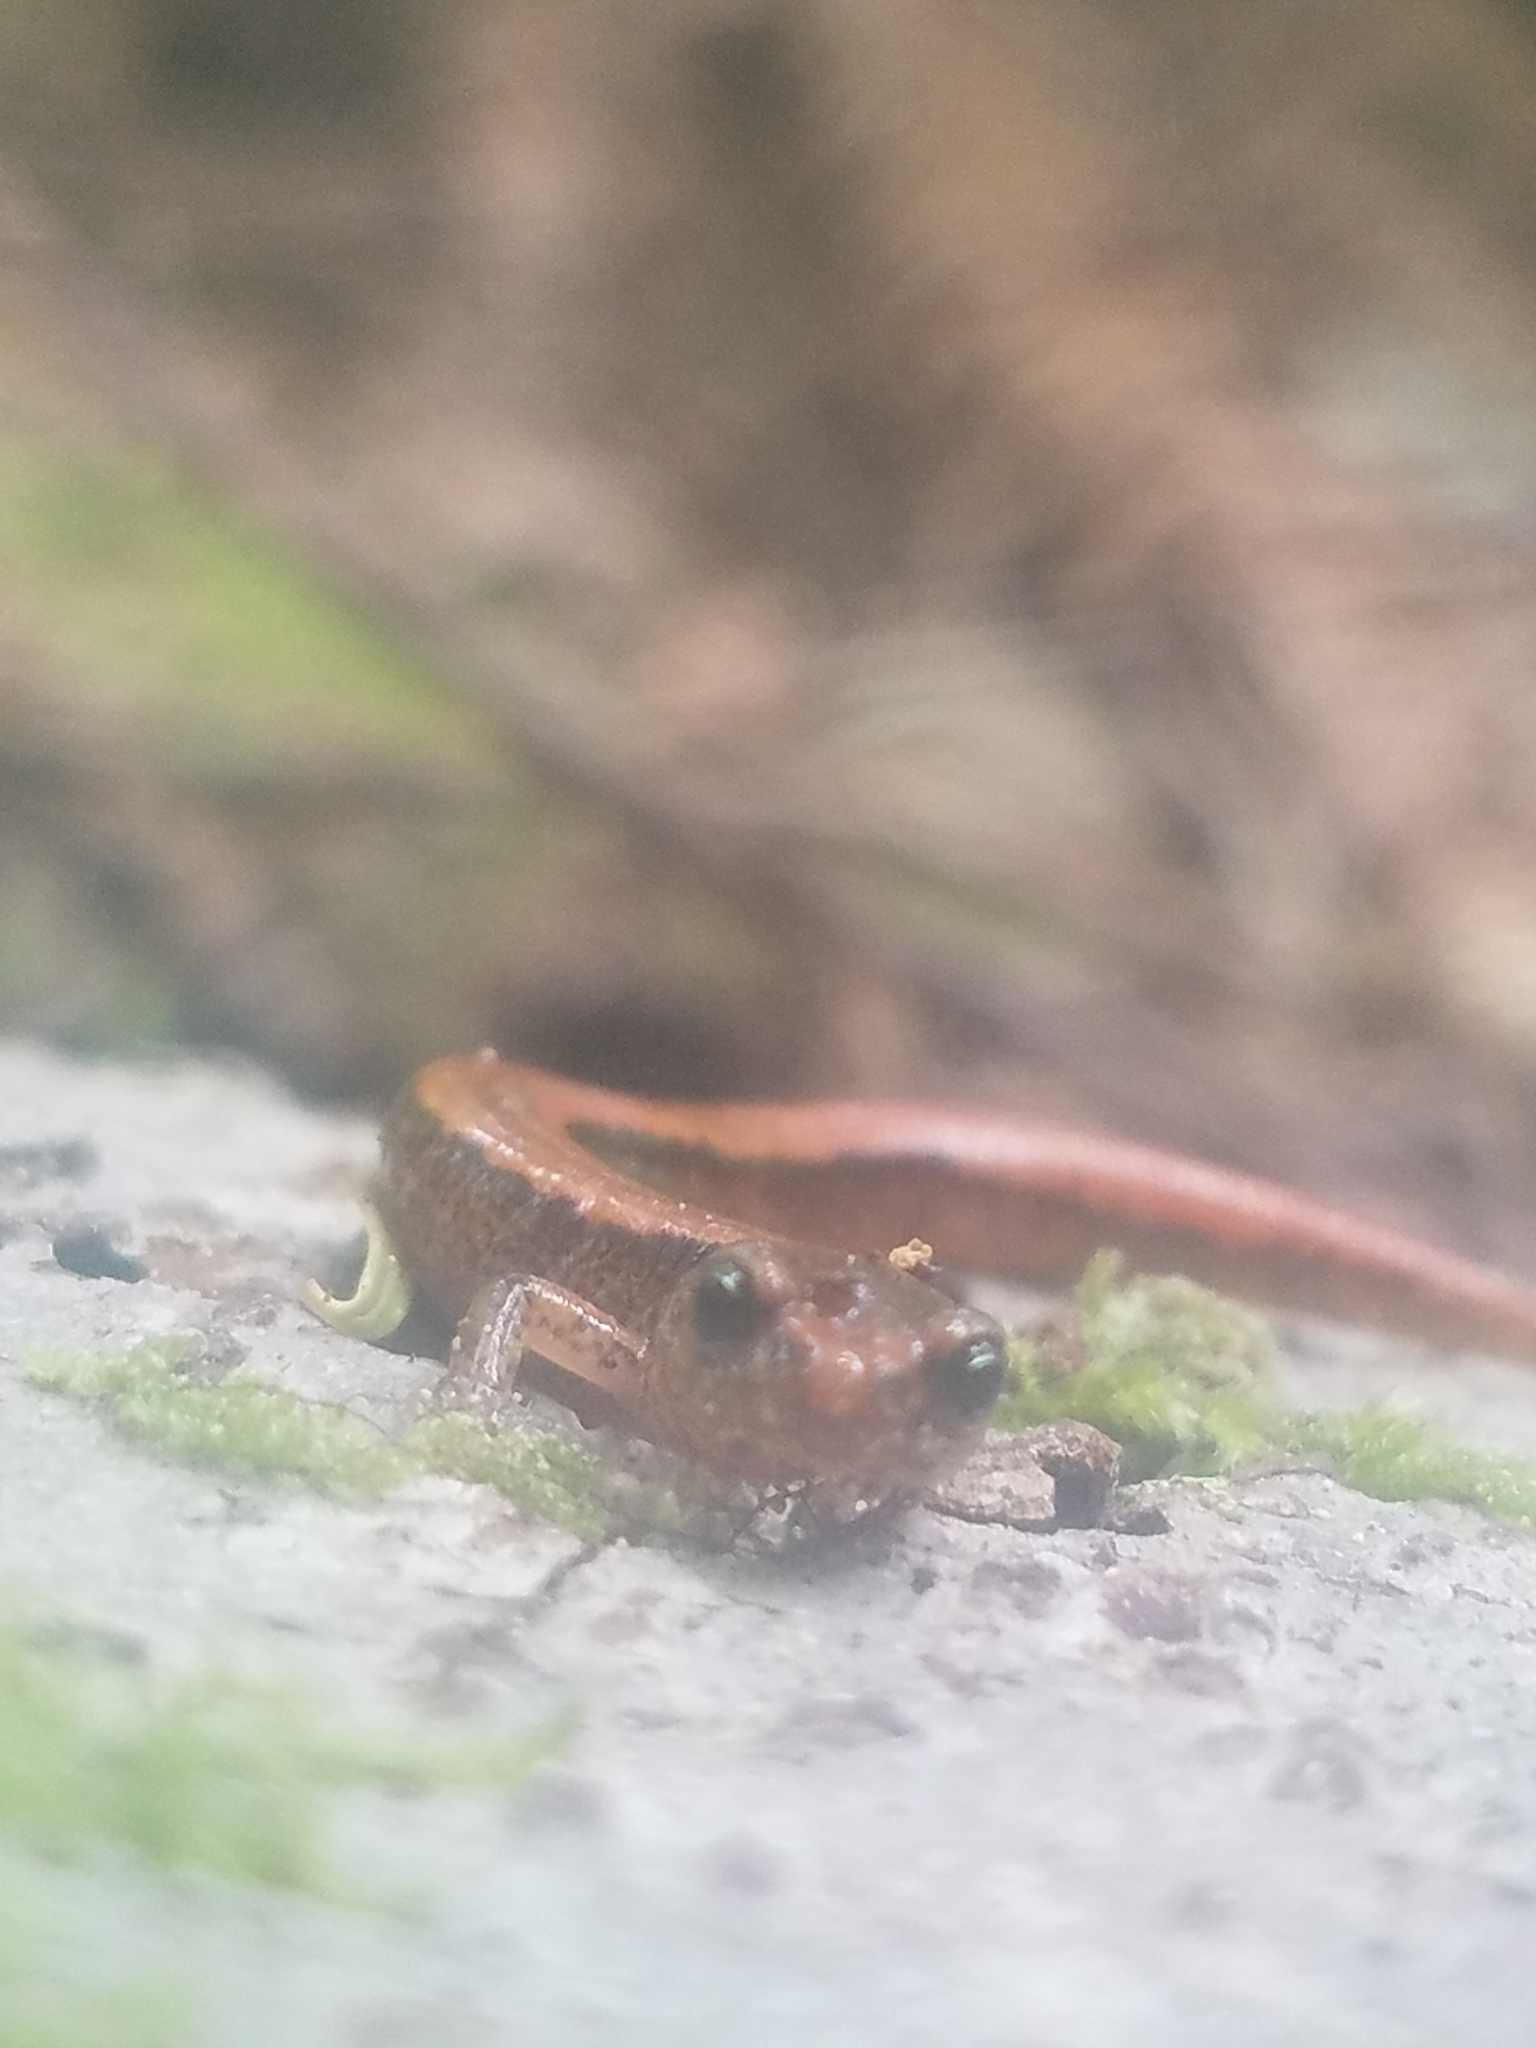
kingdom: Animalia
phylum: Chordata
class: Amphibia
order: Caudata
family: Plethodontidae
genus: Plethodon
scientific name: Plethodon vehiculum
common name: Western red-backed salamander
